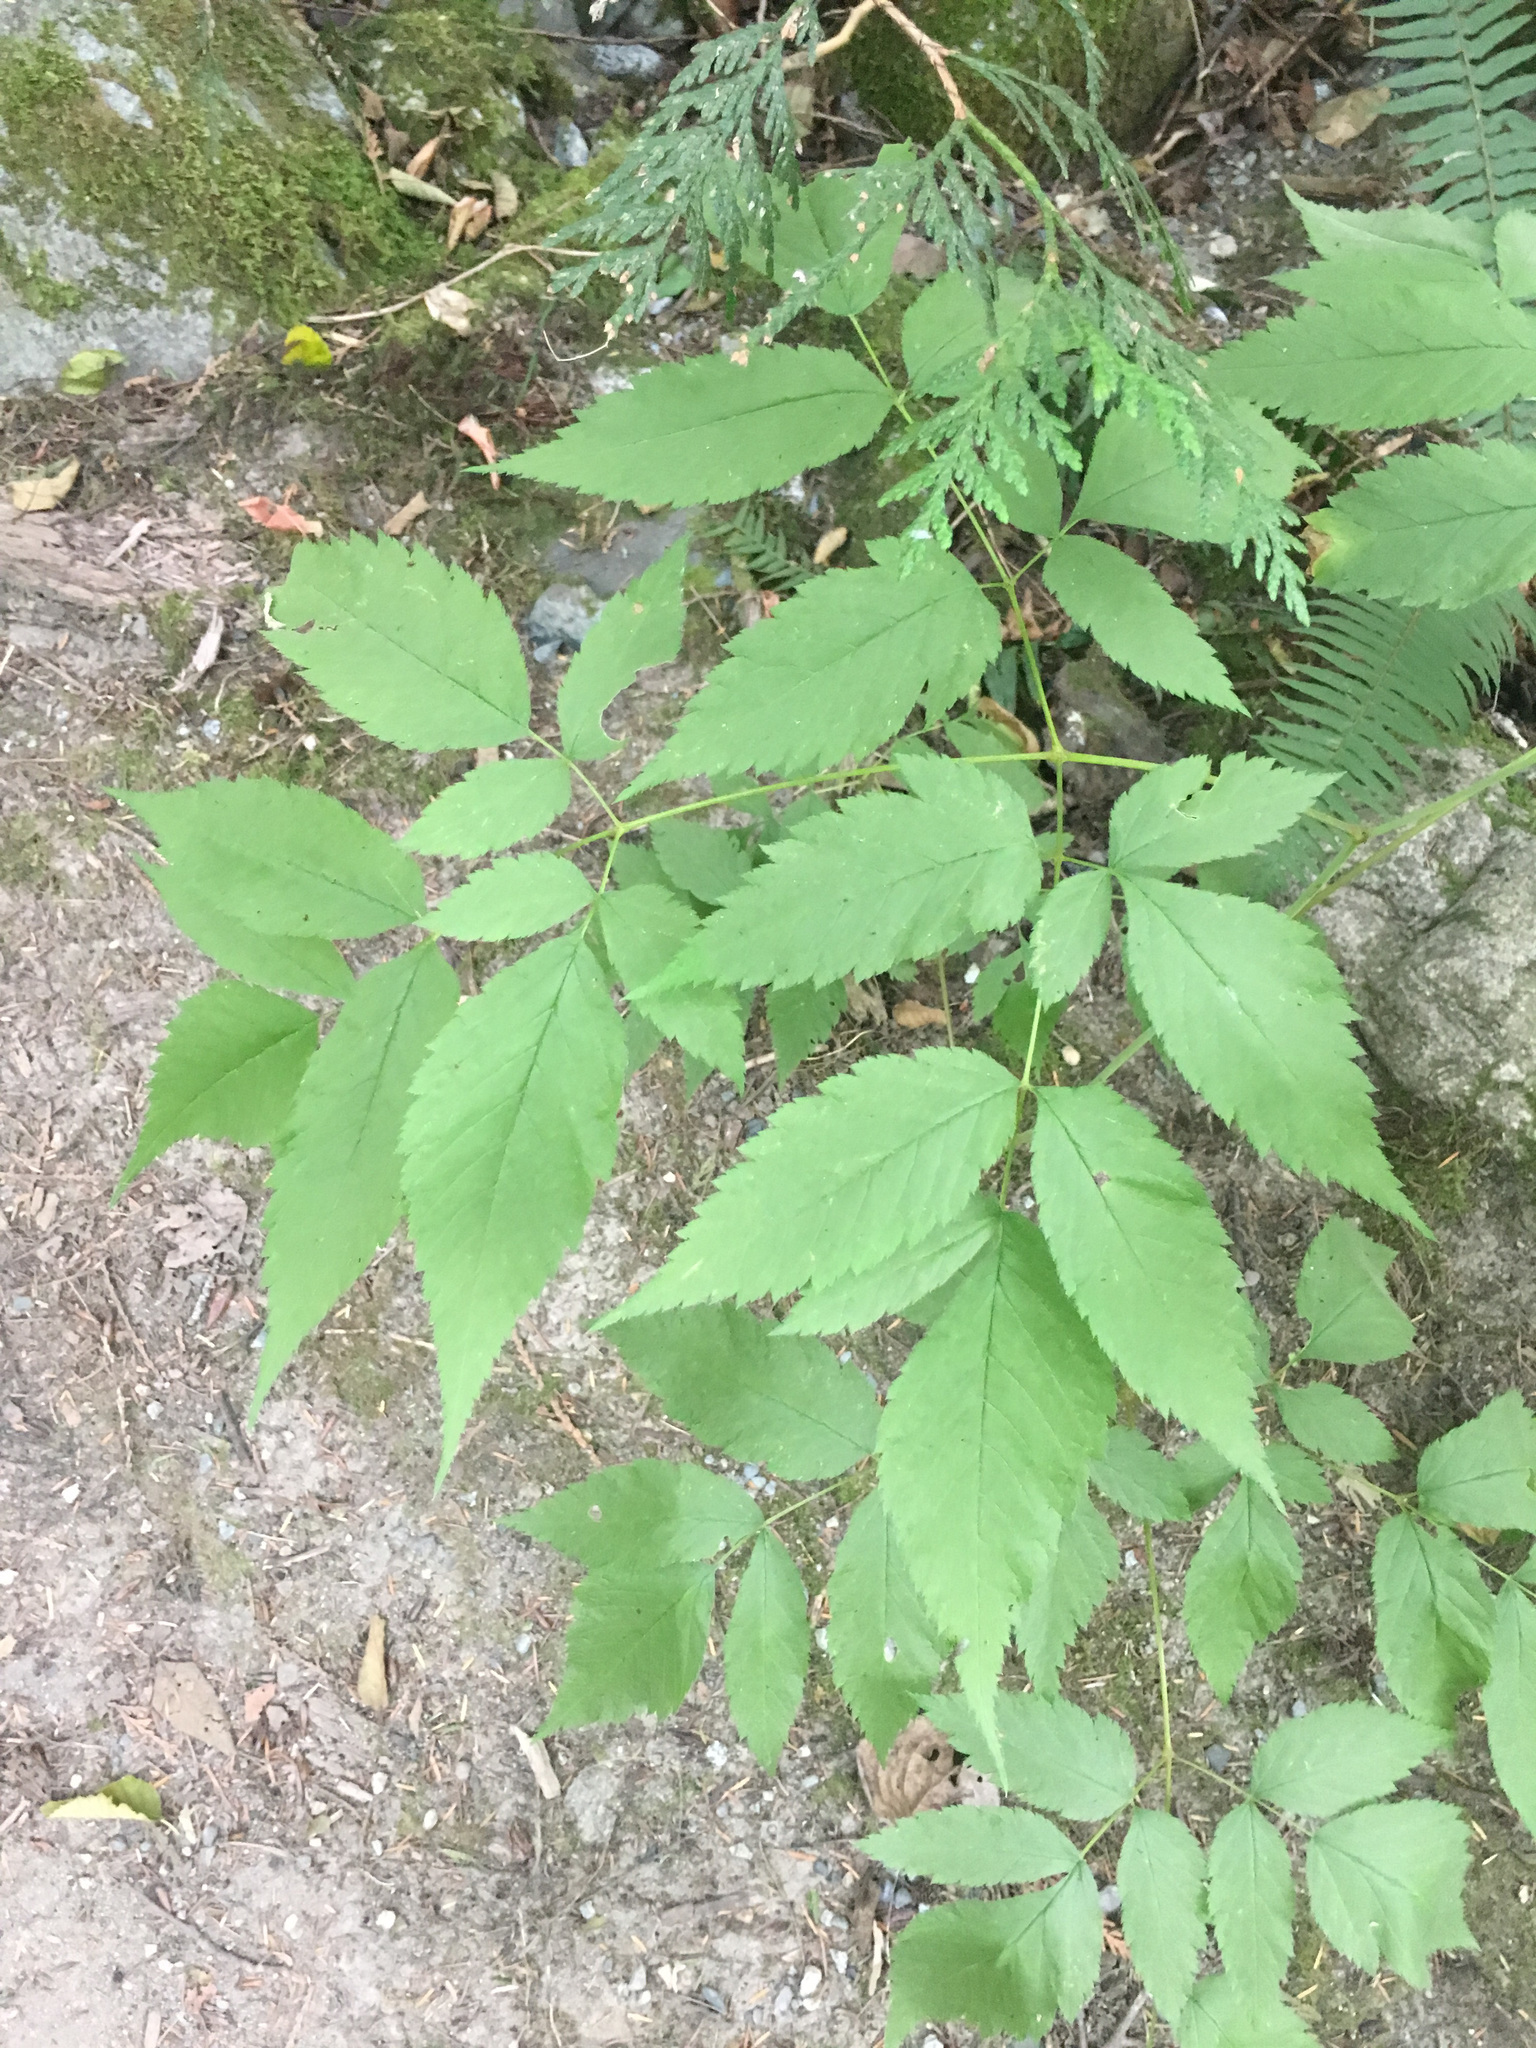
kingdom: Plantae
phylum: Tracheophyta
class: Magnoliopsida
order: Rosales
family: Rosaceae
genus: Aruncus
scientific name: Aruncus dioicus
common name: Buck's-beard
